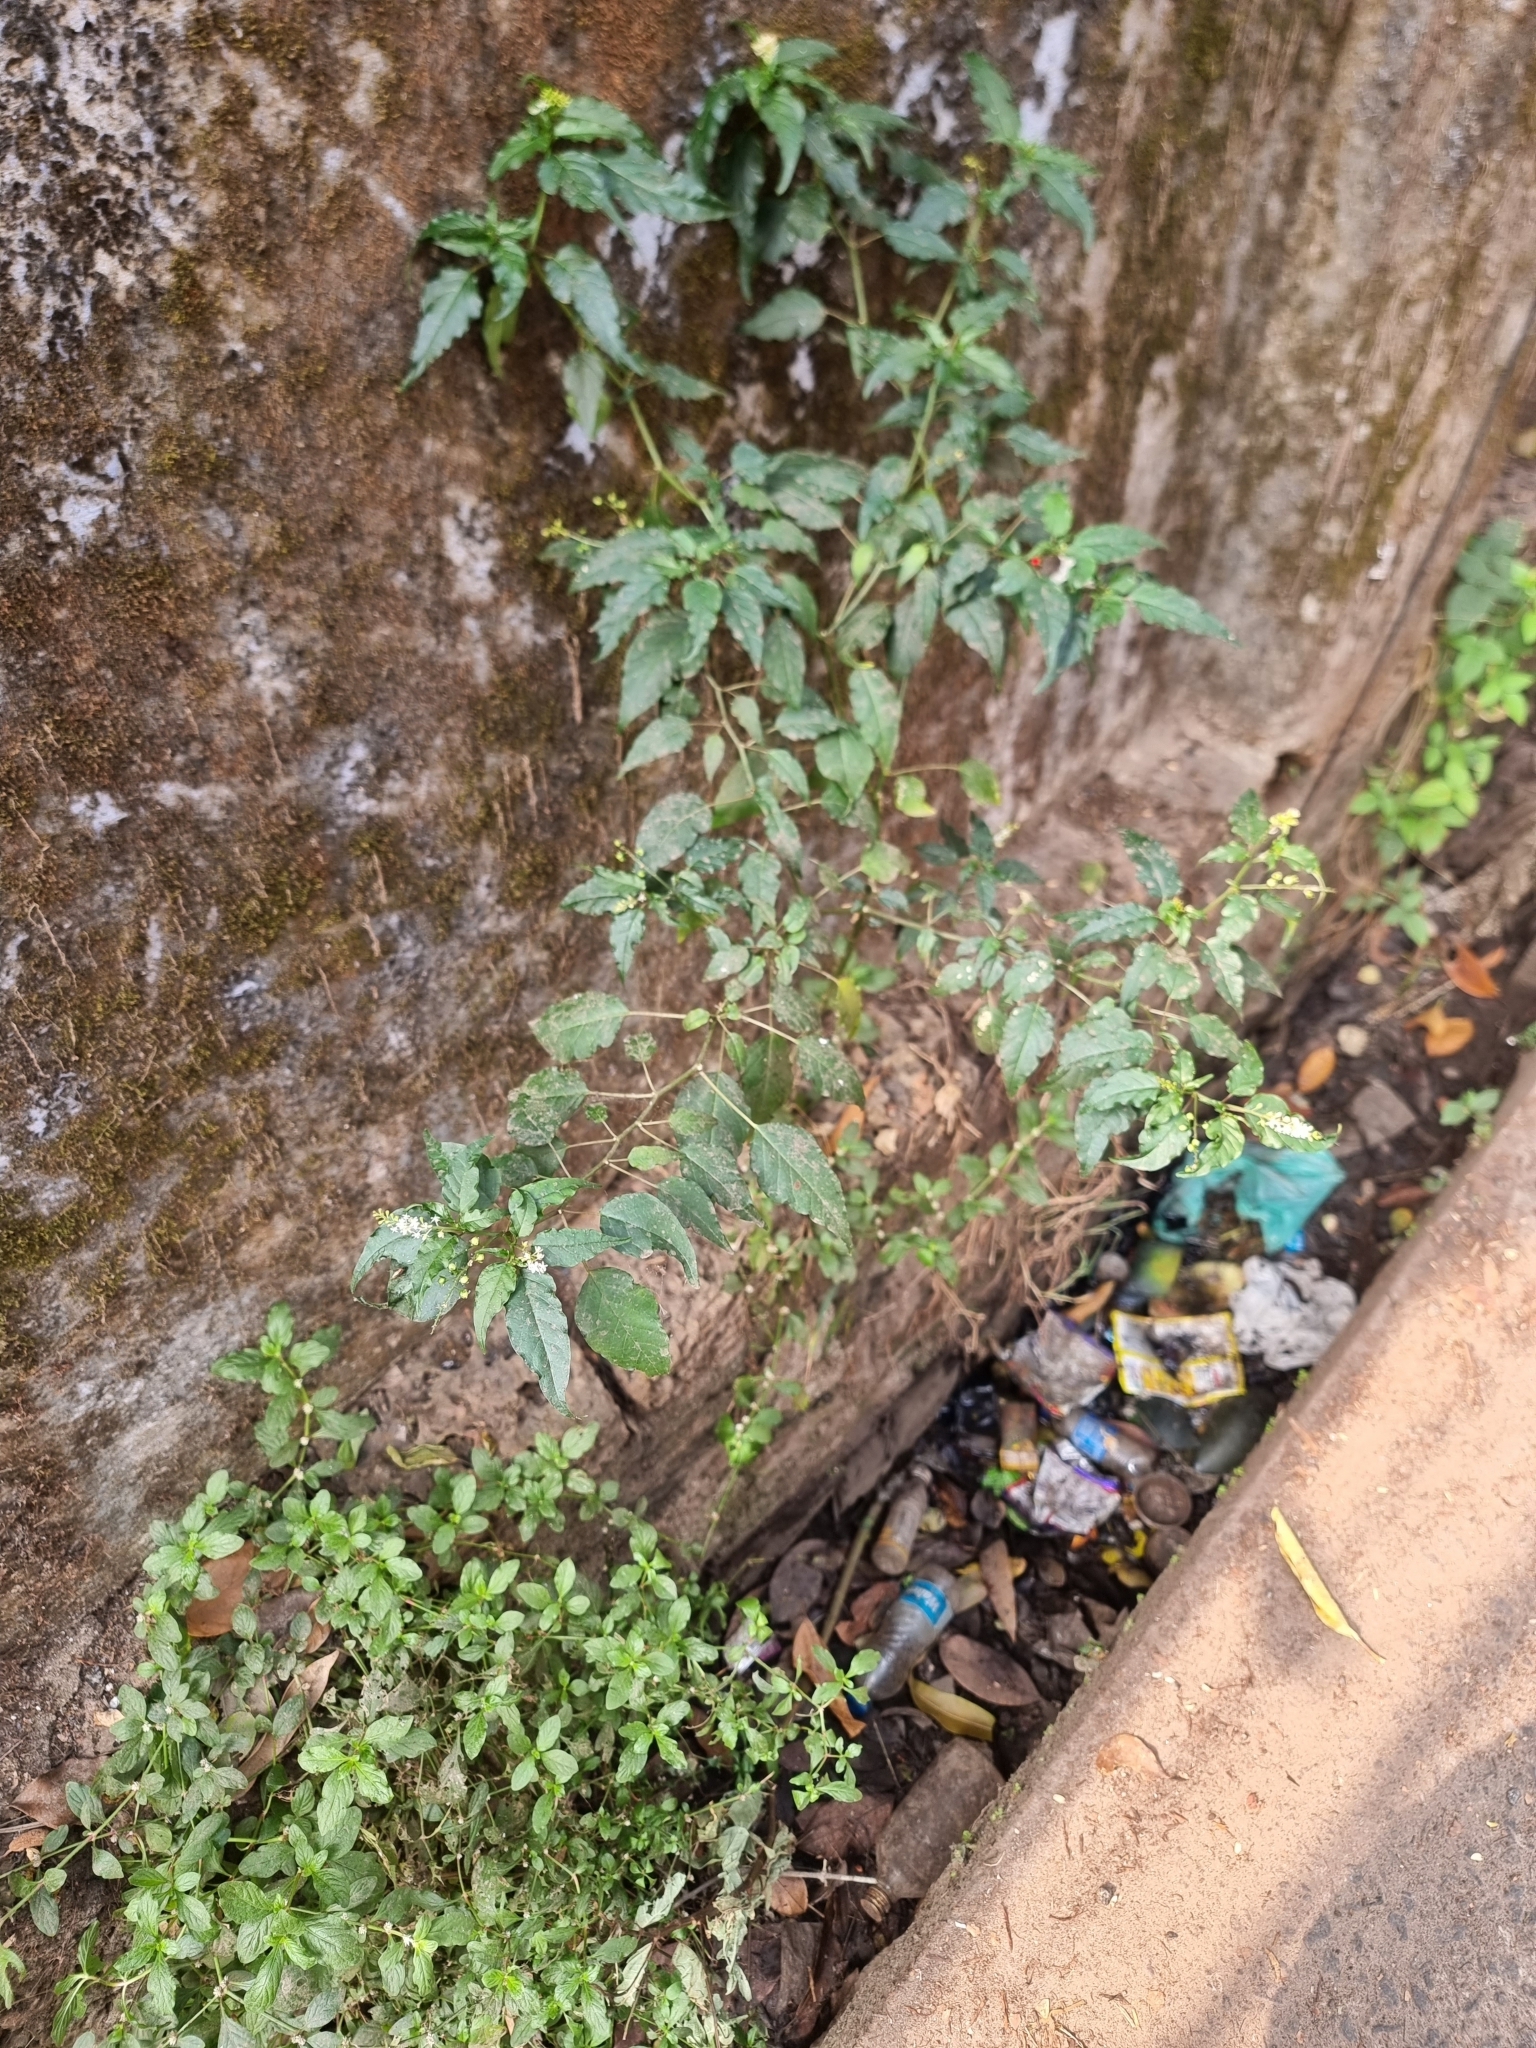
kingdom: Plantae
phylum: Tracheophyta
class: Magnoliopsida
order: Caryophyllales
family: Phytolaccaceae
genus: Rivina
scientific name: Rivina humilis
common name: Rougeplant
